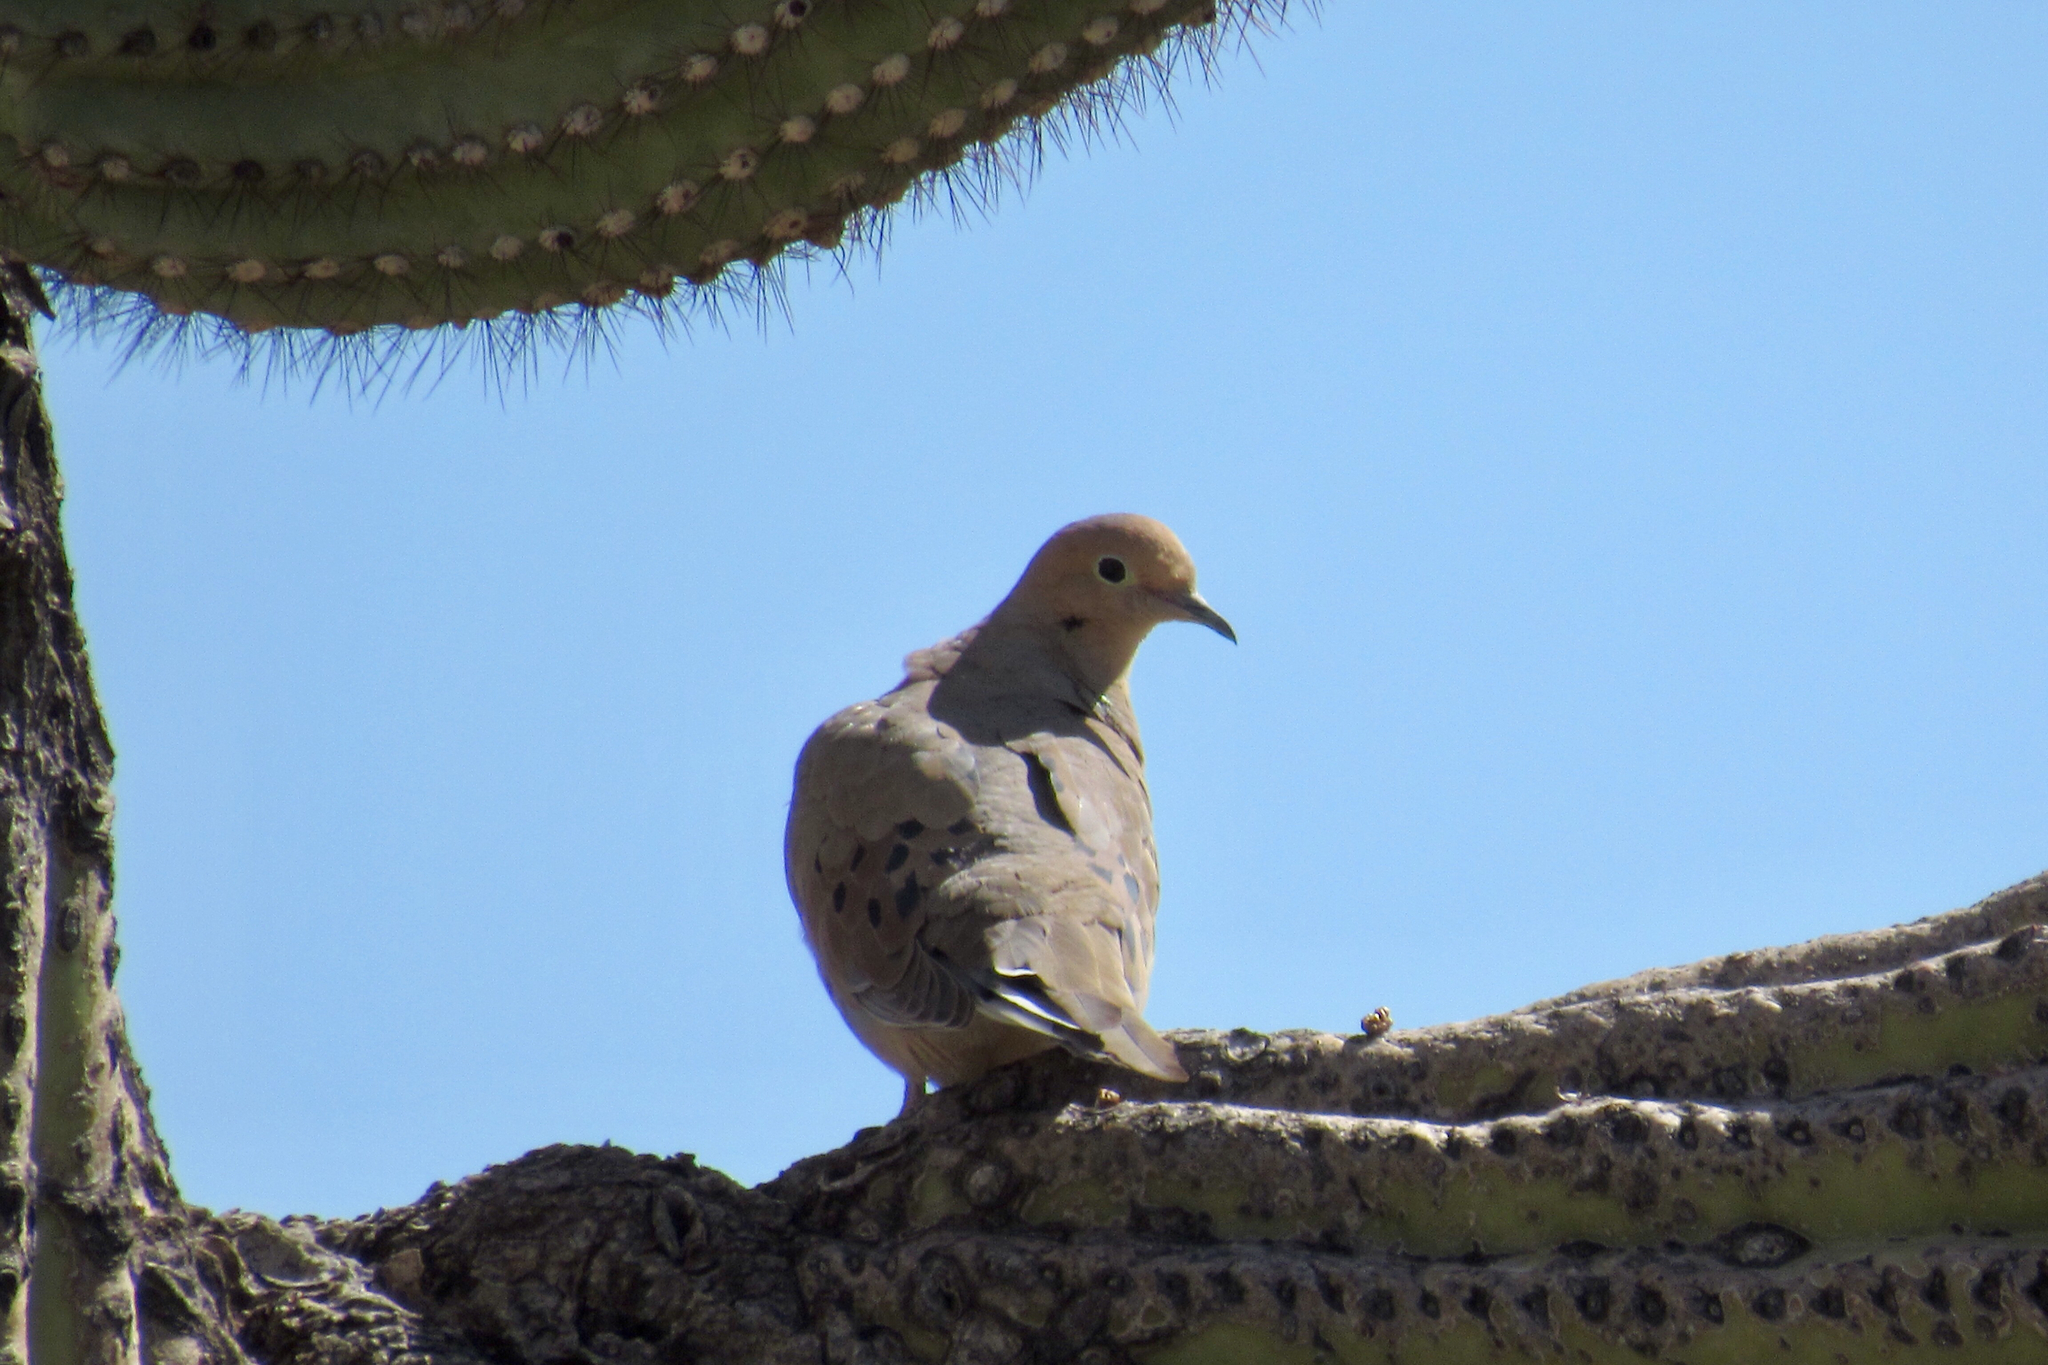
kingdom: Animalia
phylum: Chordata
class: Aves
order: Columbiformes
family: Columbidae
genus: Zenaida
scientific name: Zenaida macroura
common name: Mourning dove
